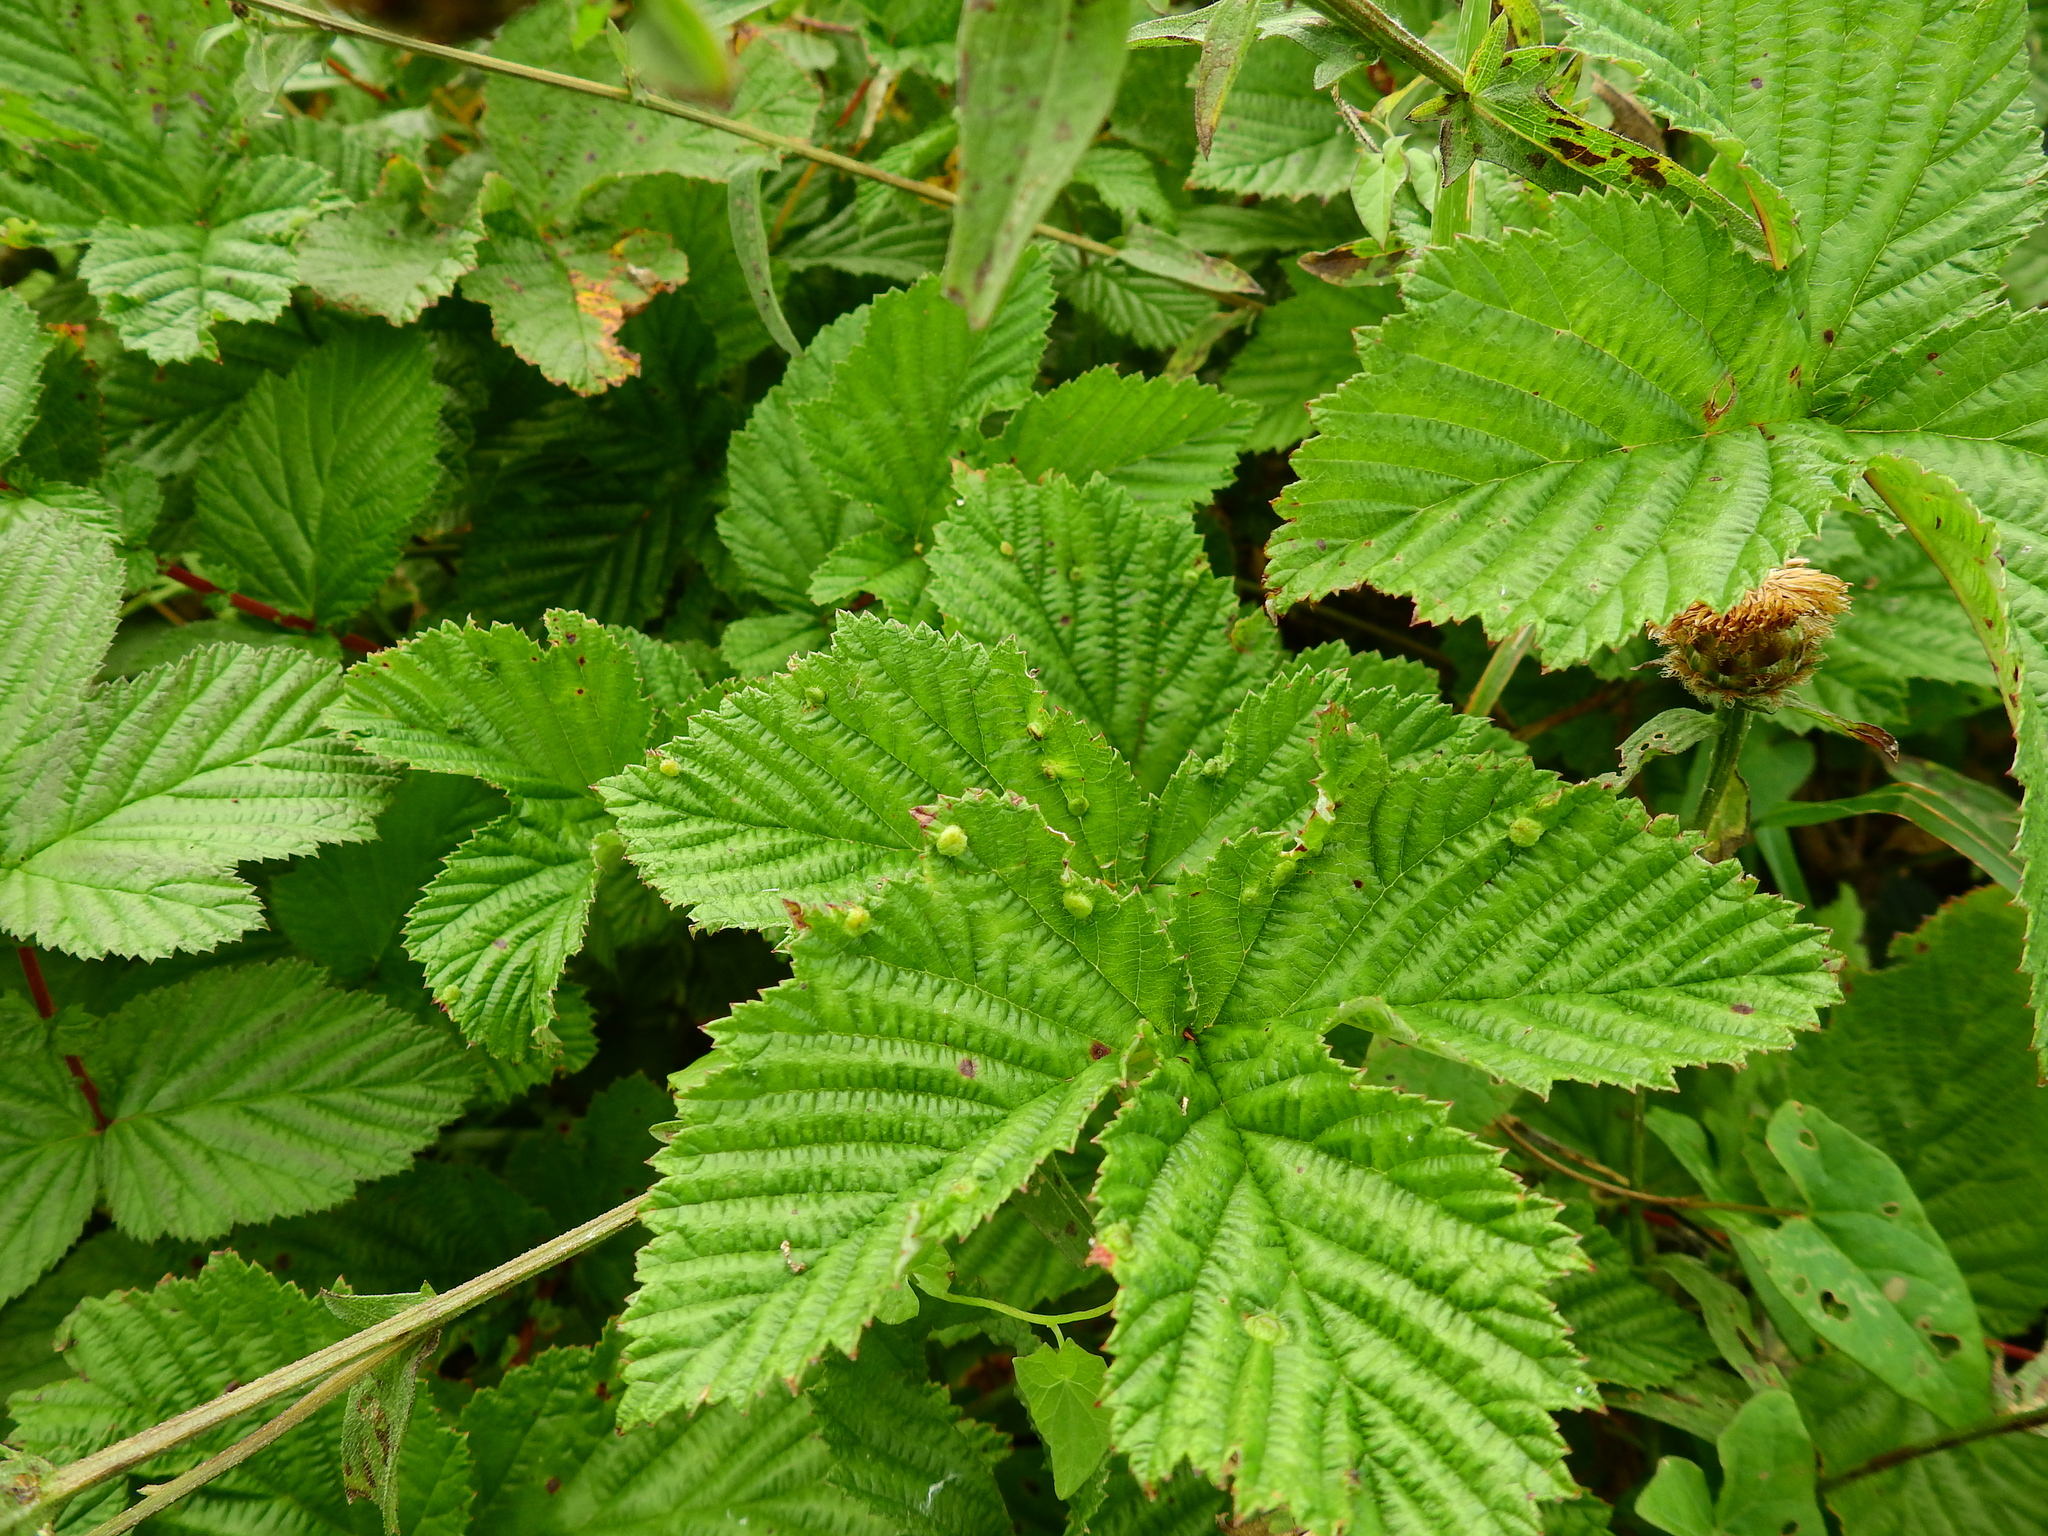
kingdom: Animalia
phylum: Arthropoda
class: Insecta
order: Diptera
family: Cecidomyiidae
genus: Dasineura
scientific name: Dasineura ulmaria
